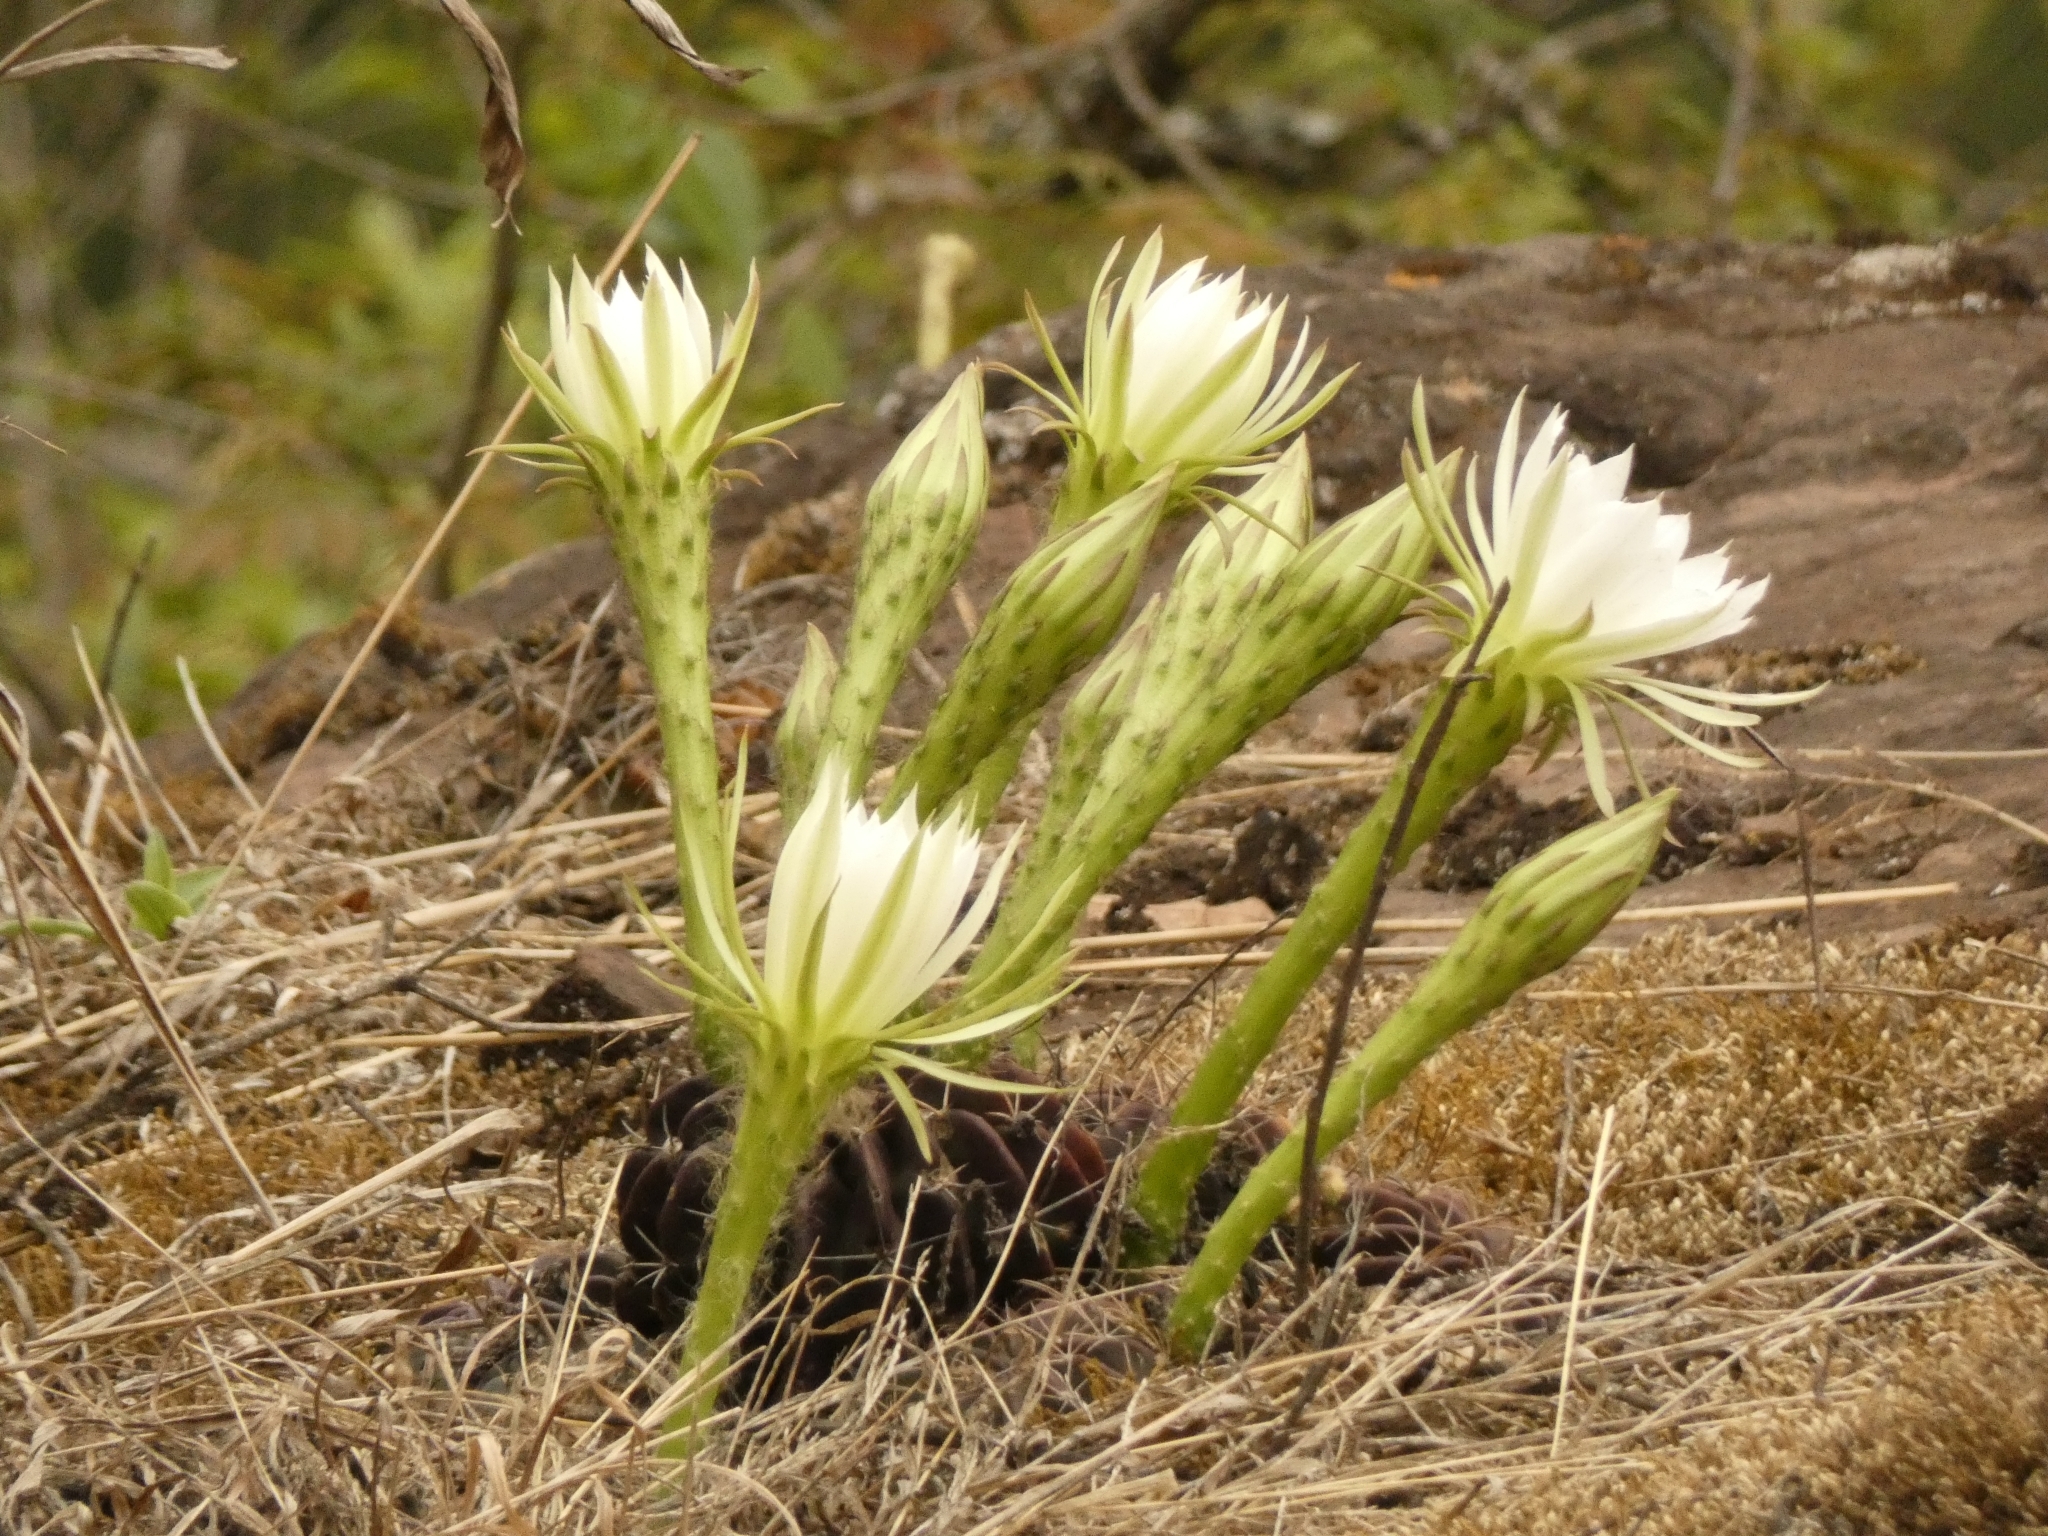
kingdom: Plantae
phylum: Tracheophyta
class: Magnoliopsida
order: Caryophyllales
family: Cactaceae
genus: Lobivia
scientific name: Lobivia ancistrophora
